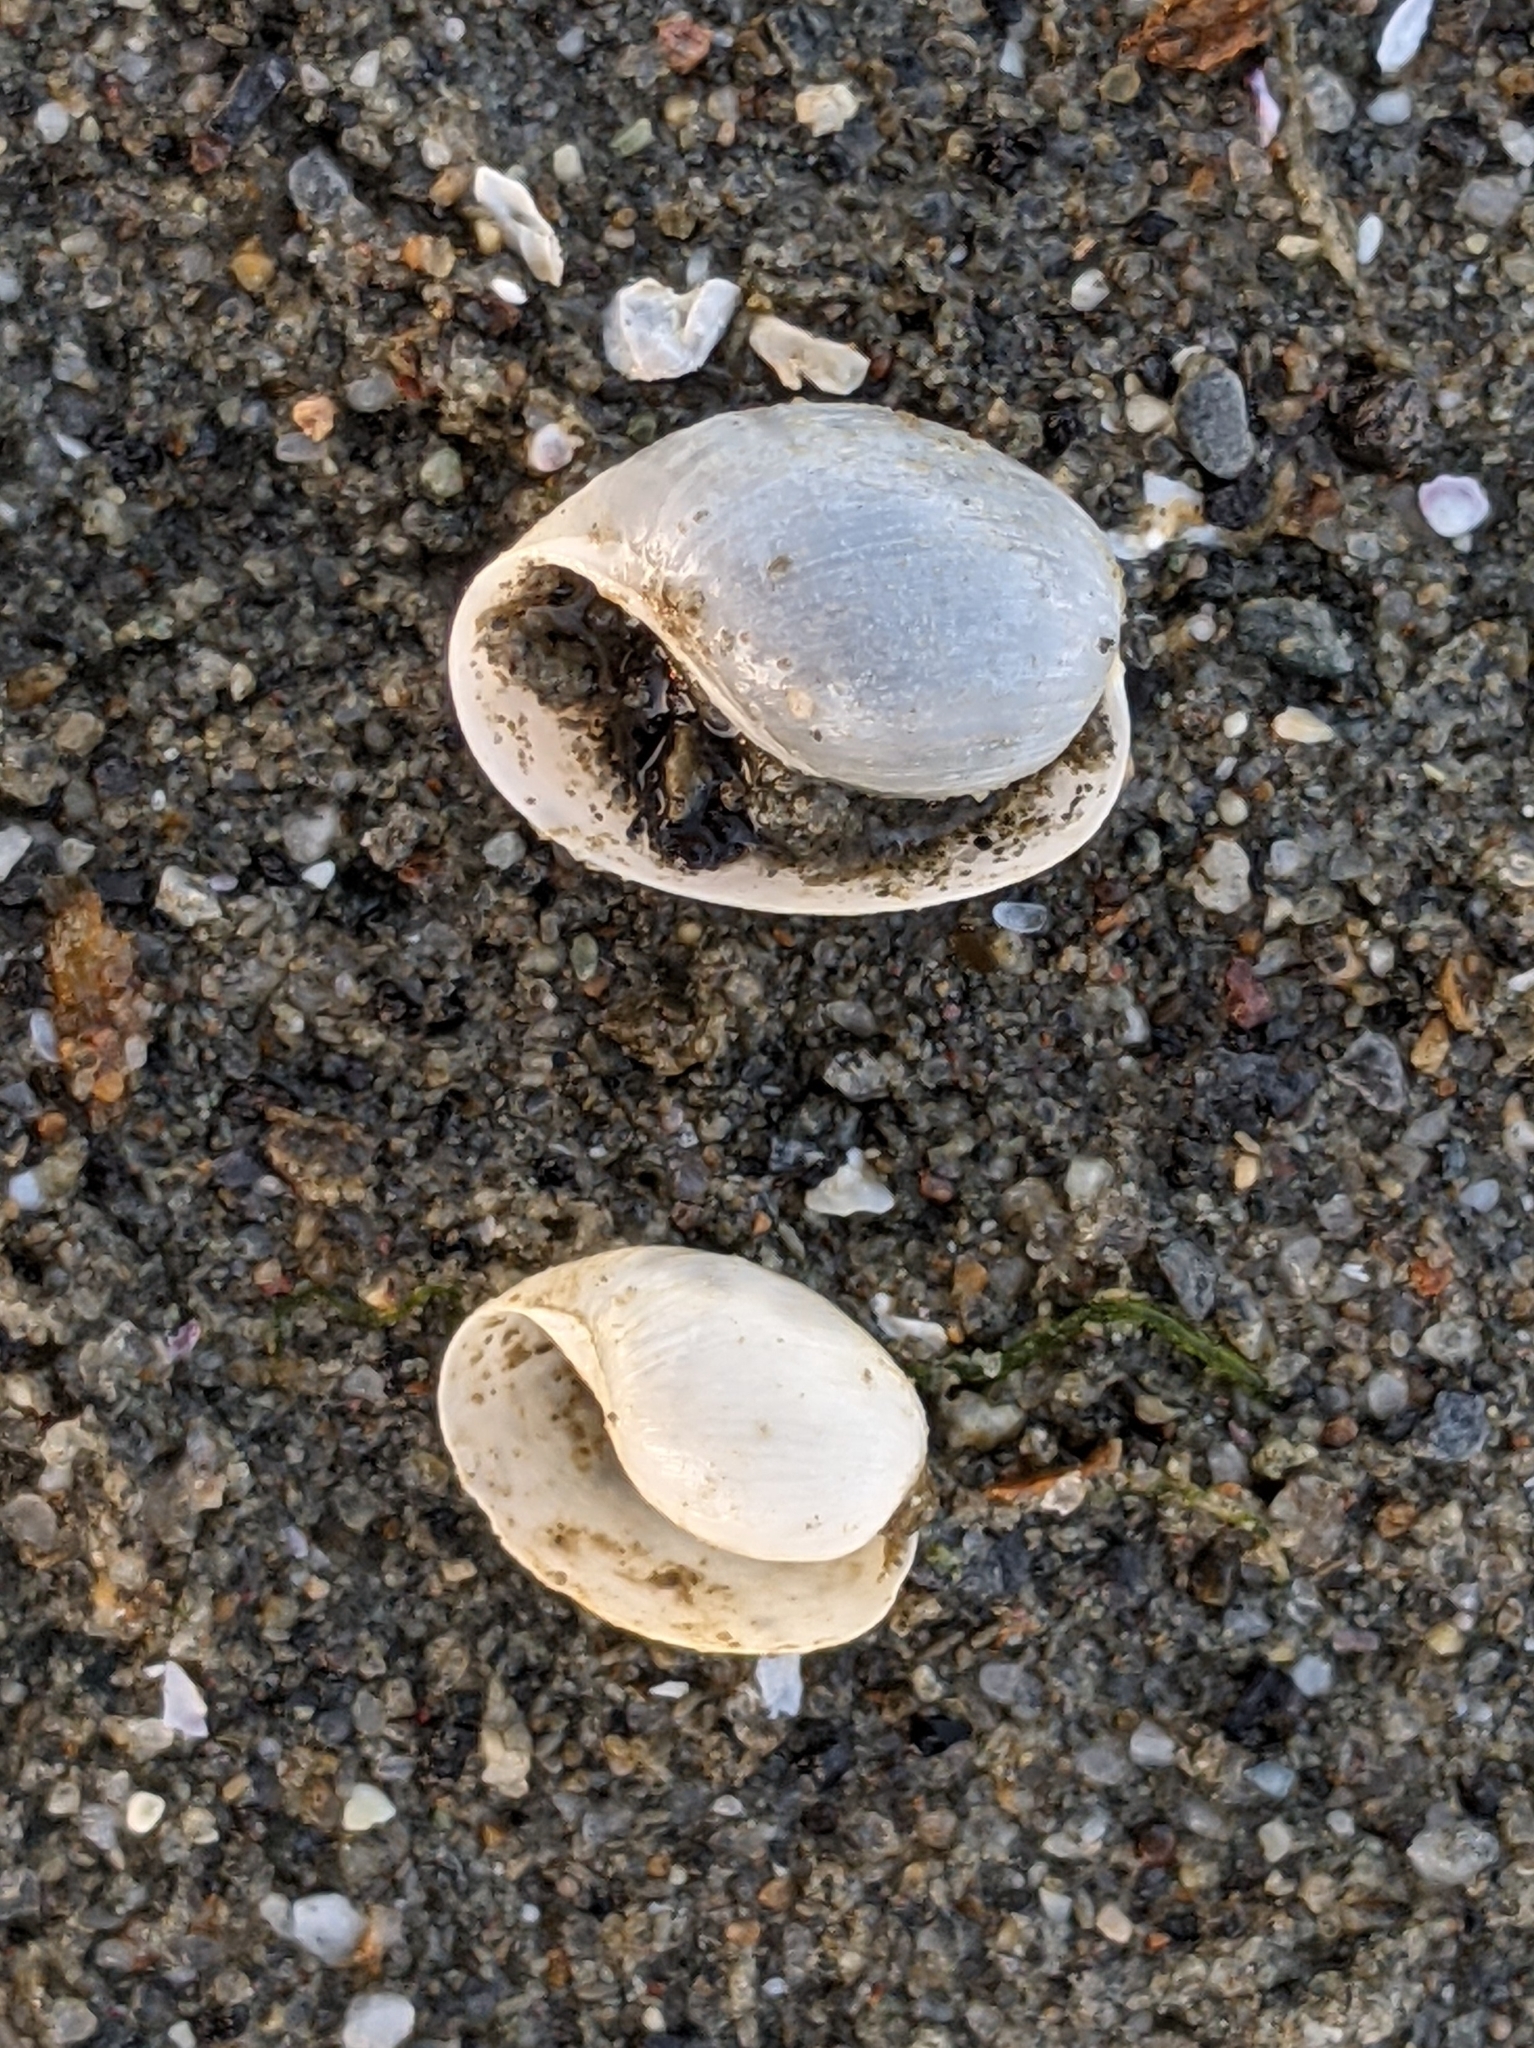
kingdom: Animalia
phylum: Mollusca
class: Gastropoda
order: Cephalaspidea
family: Haminoeidae
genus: Haloa
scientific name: Haloa japonica
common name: Japanese bubble snail
